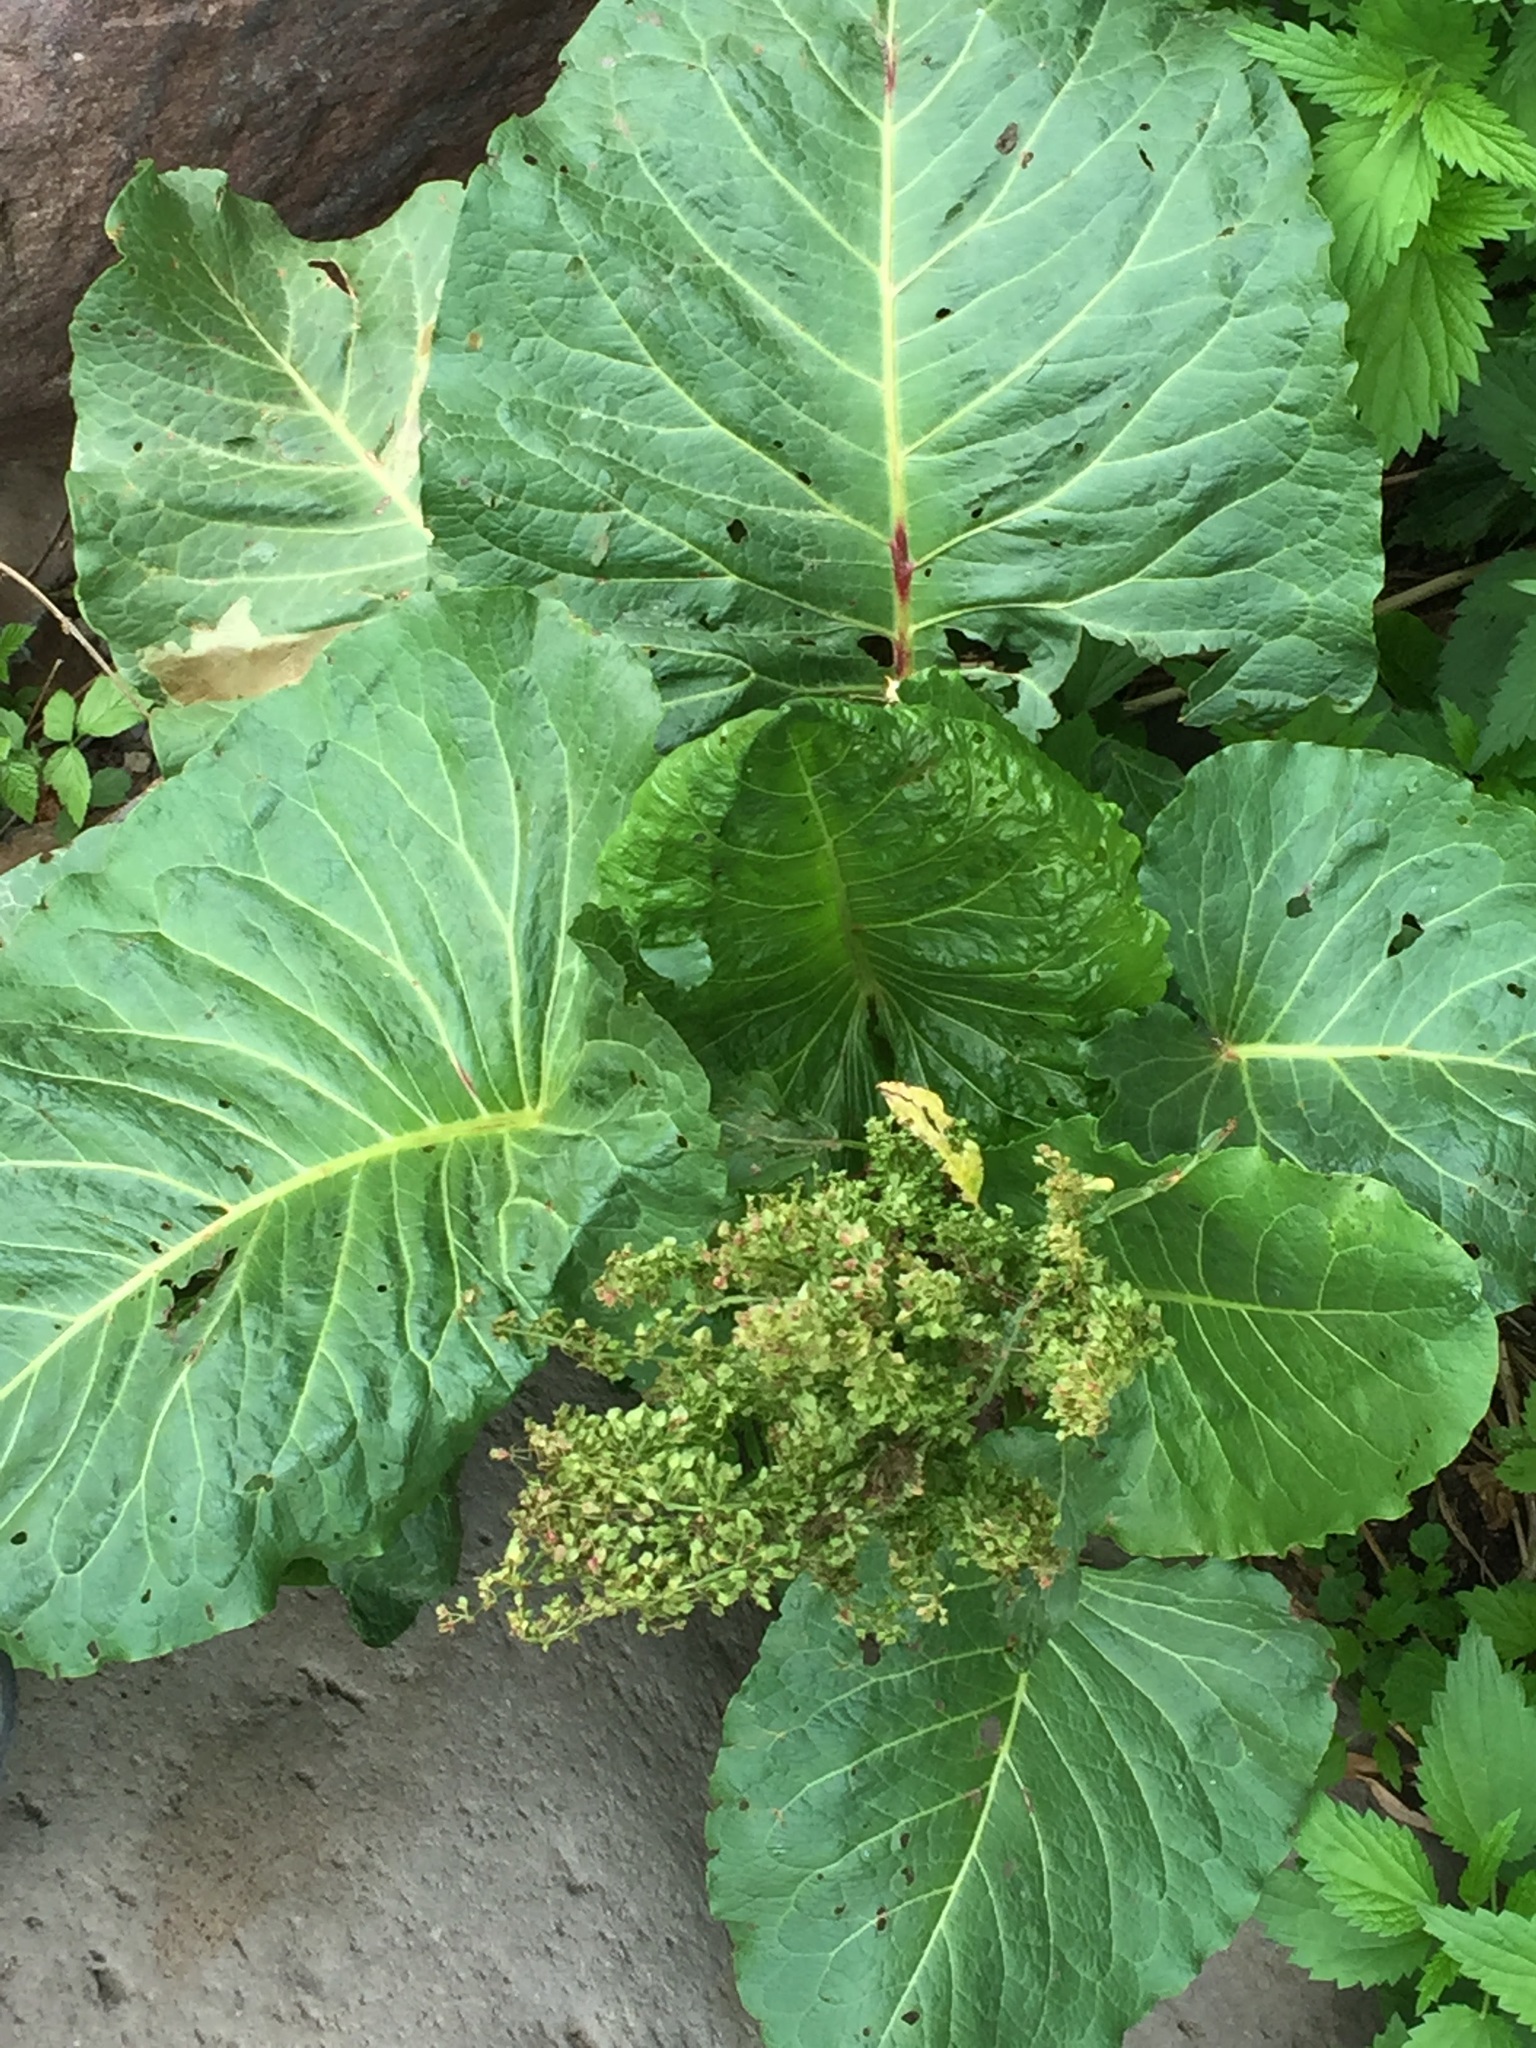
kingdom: Plantae
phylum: Tracheophyta
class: Magnoliopsida
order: Caryophyllales
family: Polygonaceae
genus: Rumex
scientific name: Rumex alpinus
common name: Alpine dock
